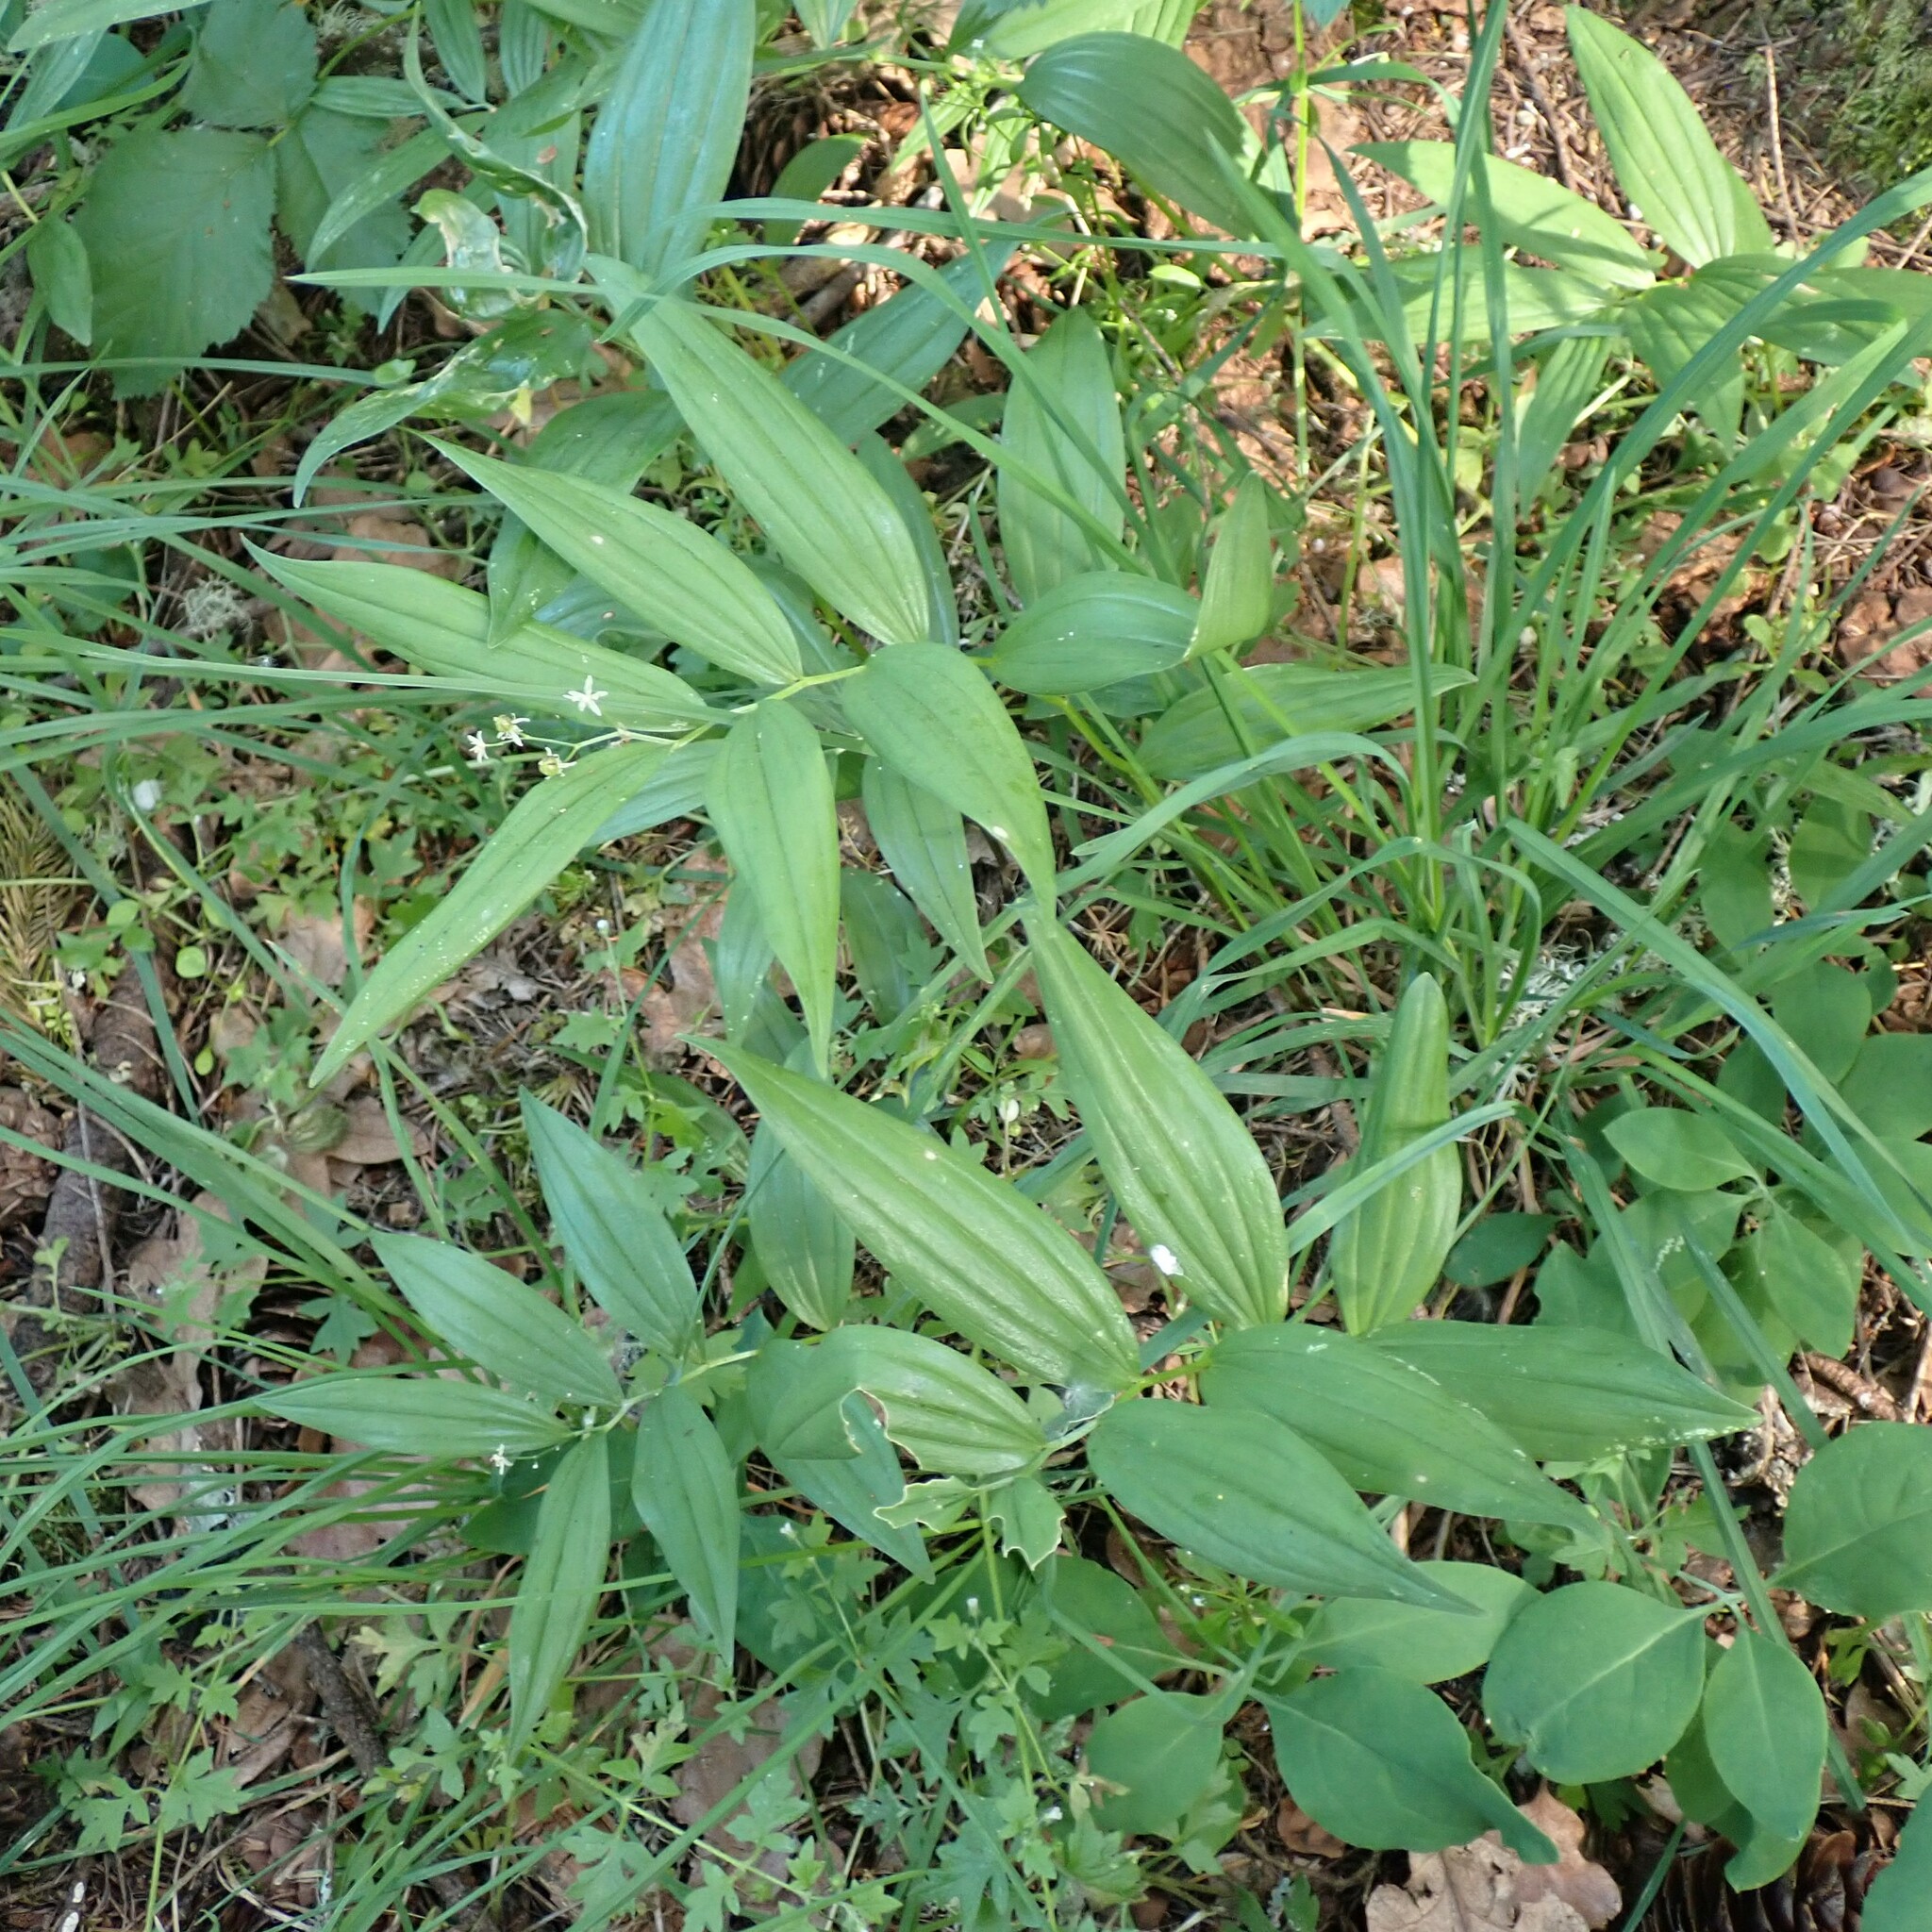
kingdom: Plantae
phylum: Tracheophyta
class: Liliopsida
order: Asparagales
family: Asparagaceae
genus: Maianthemum
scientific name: Maianthemum stellatum
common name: Little false solomon's seal
